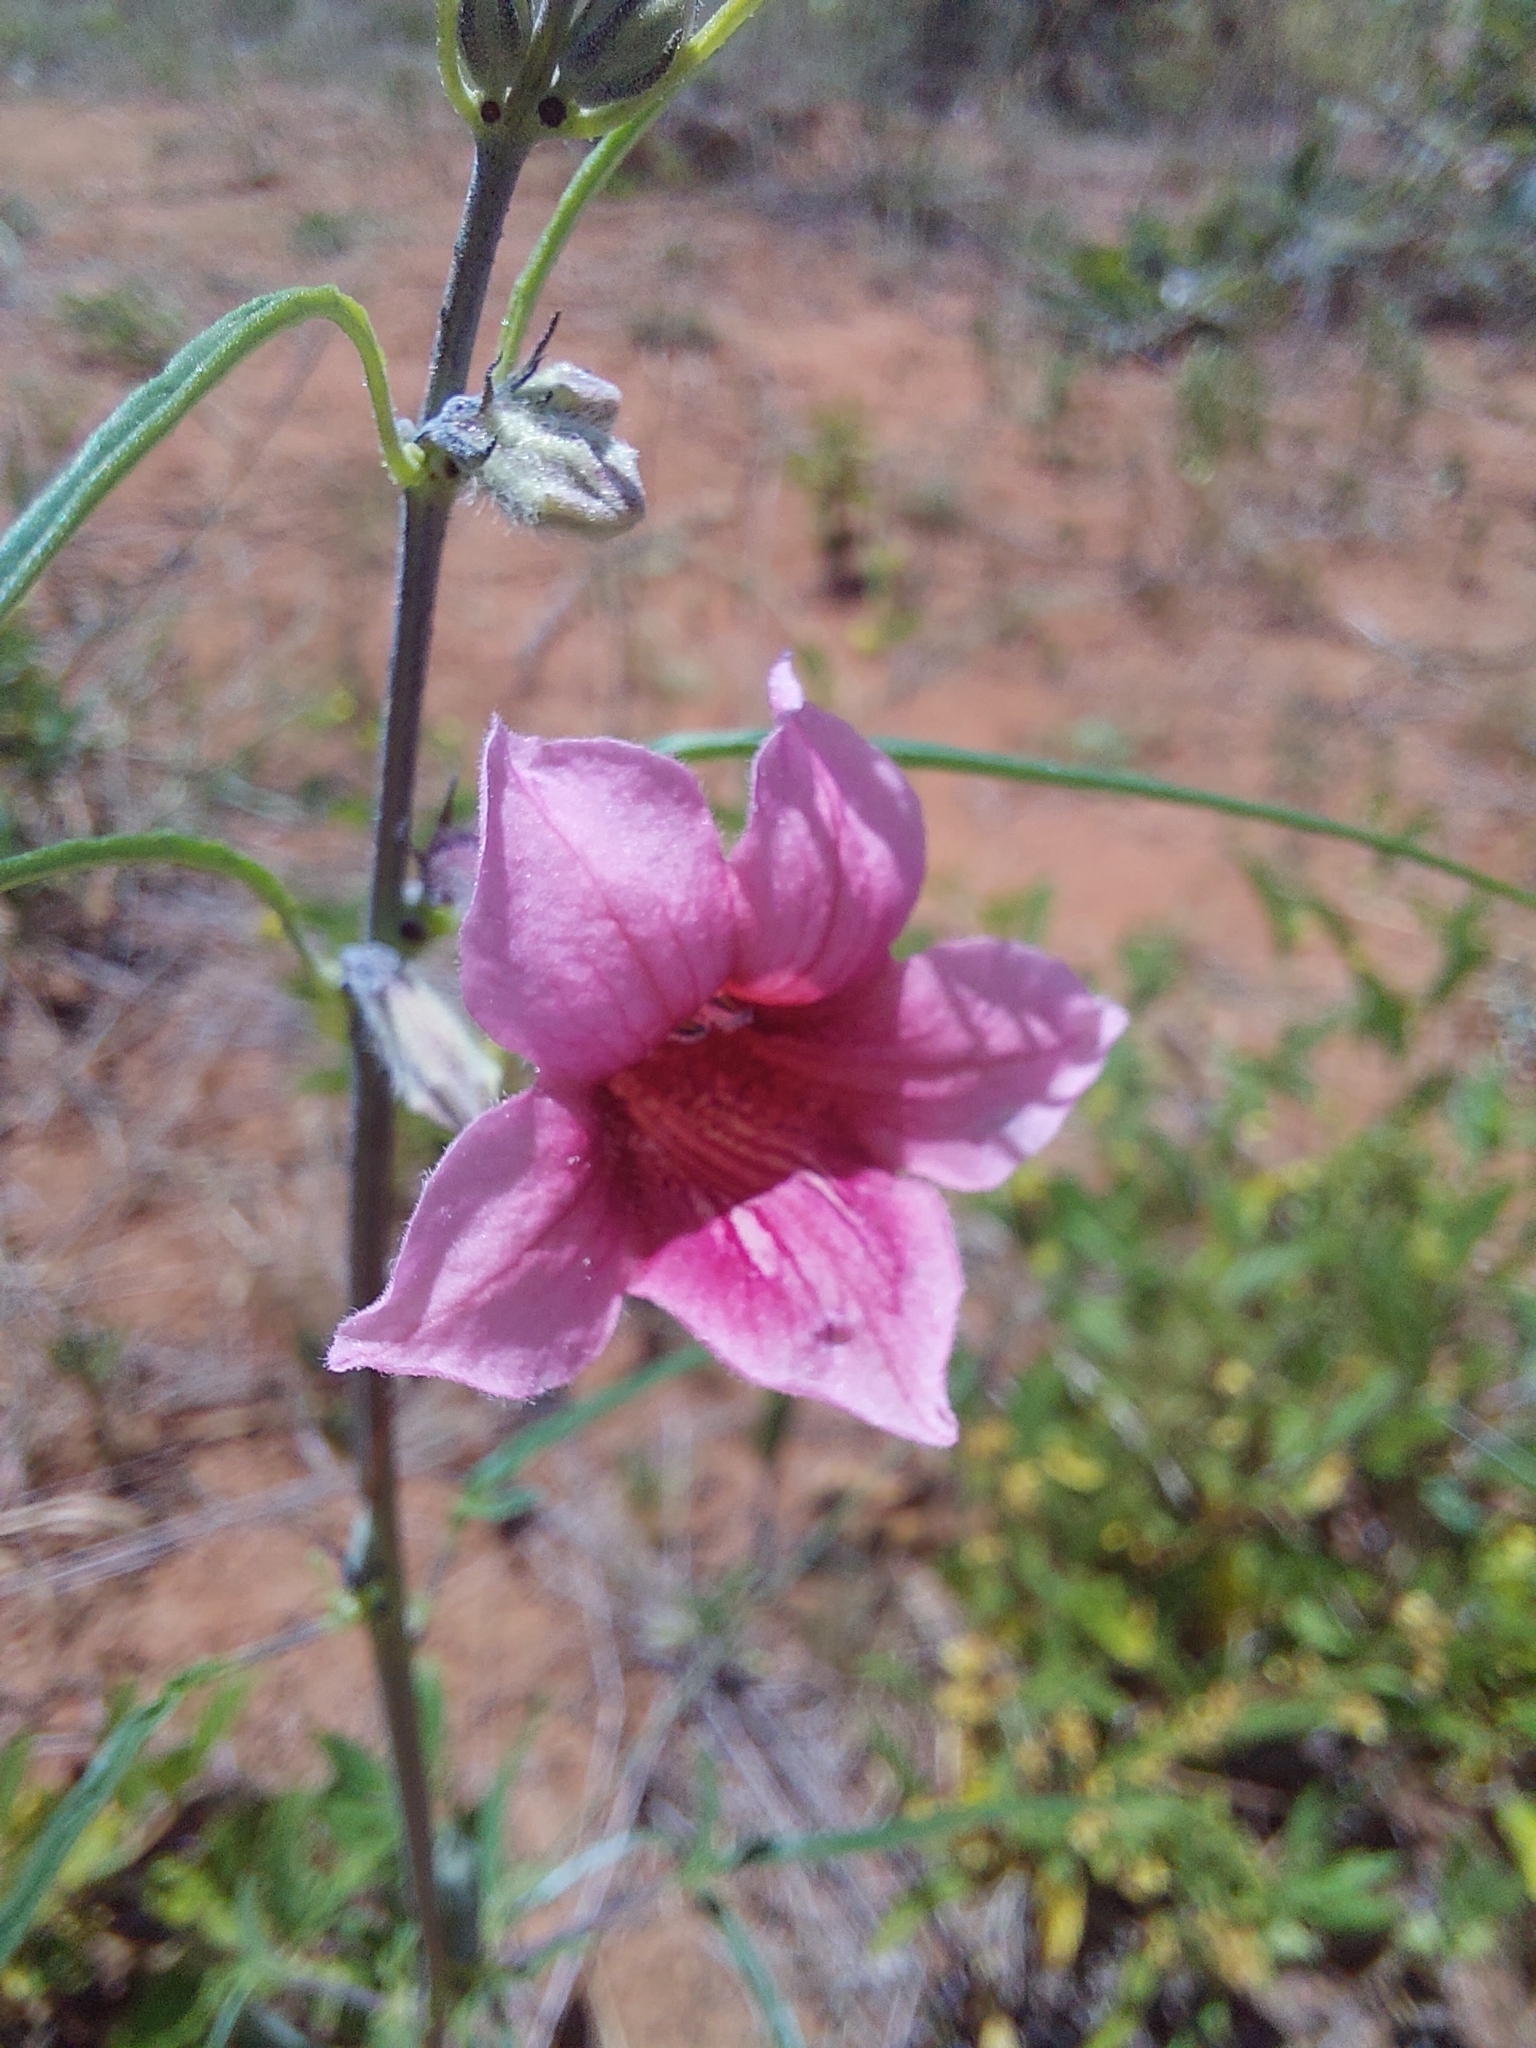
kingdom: Plantae
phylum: Tracheophyta
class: Magnoliopsida
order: Lamiales
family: Pedaliaceae
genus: Sesamum
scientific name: Sesamum alatum
